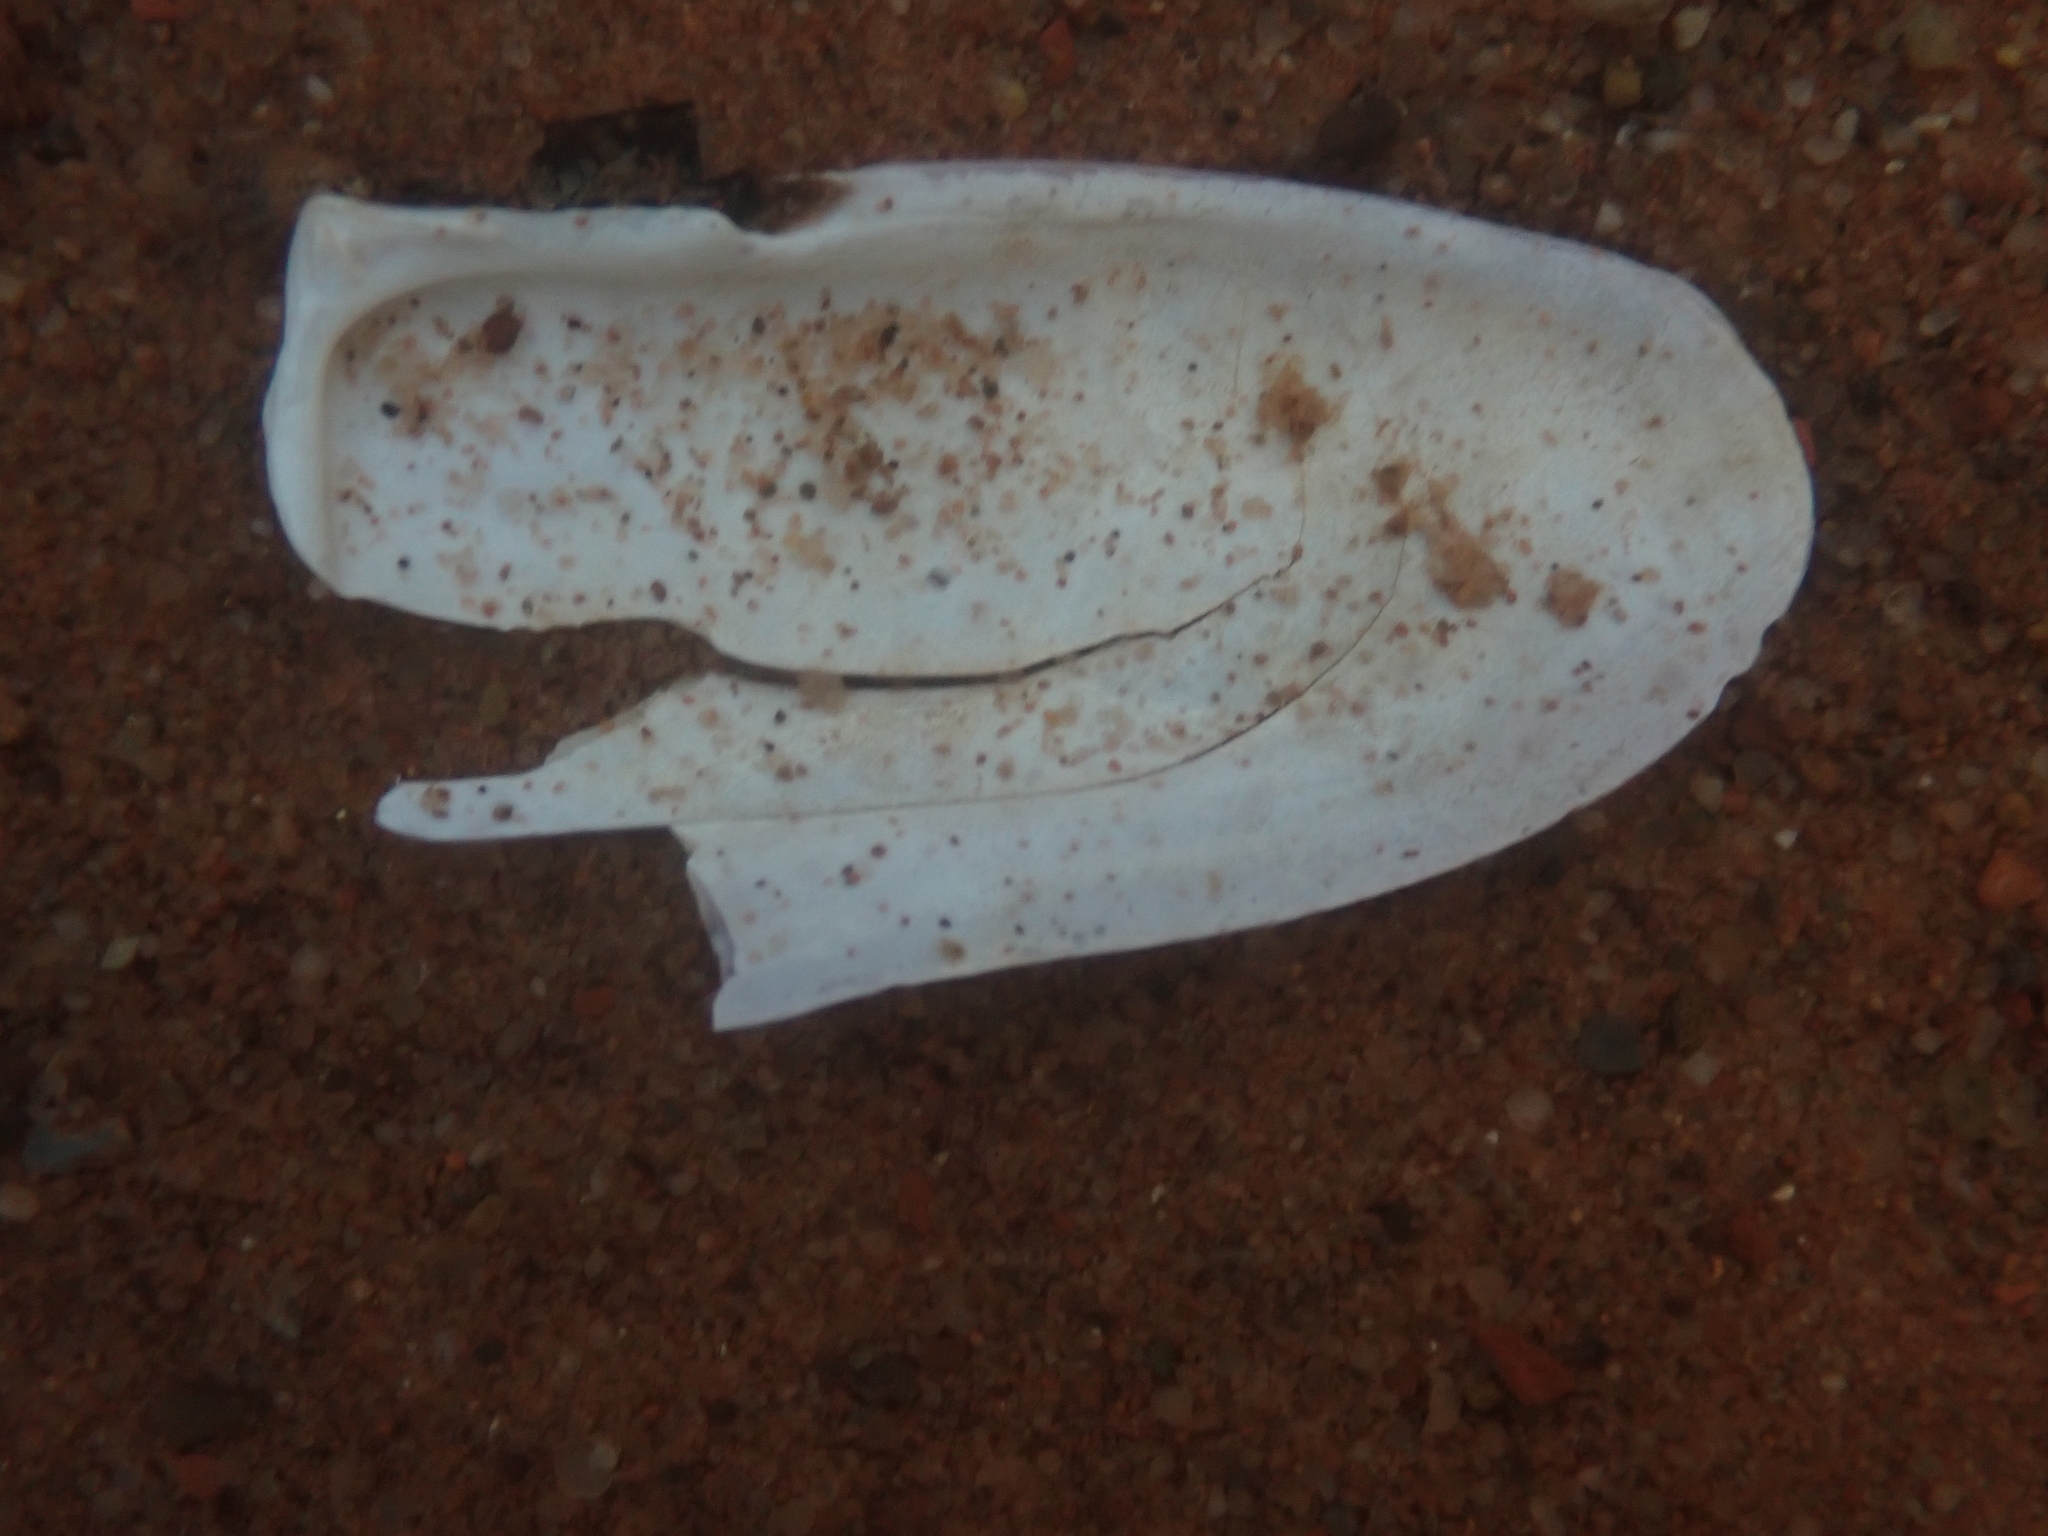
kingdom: Animalia
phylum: Mollusca
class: Bivalvia
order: Adapedonta
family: Pharidae
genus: Siliqua
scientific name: Siliqua costata
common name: Atlantic razor
